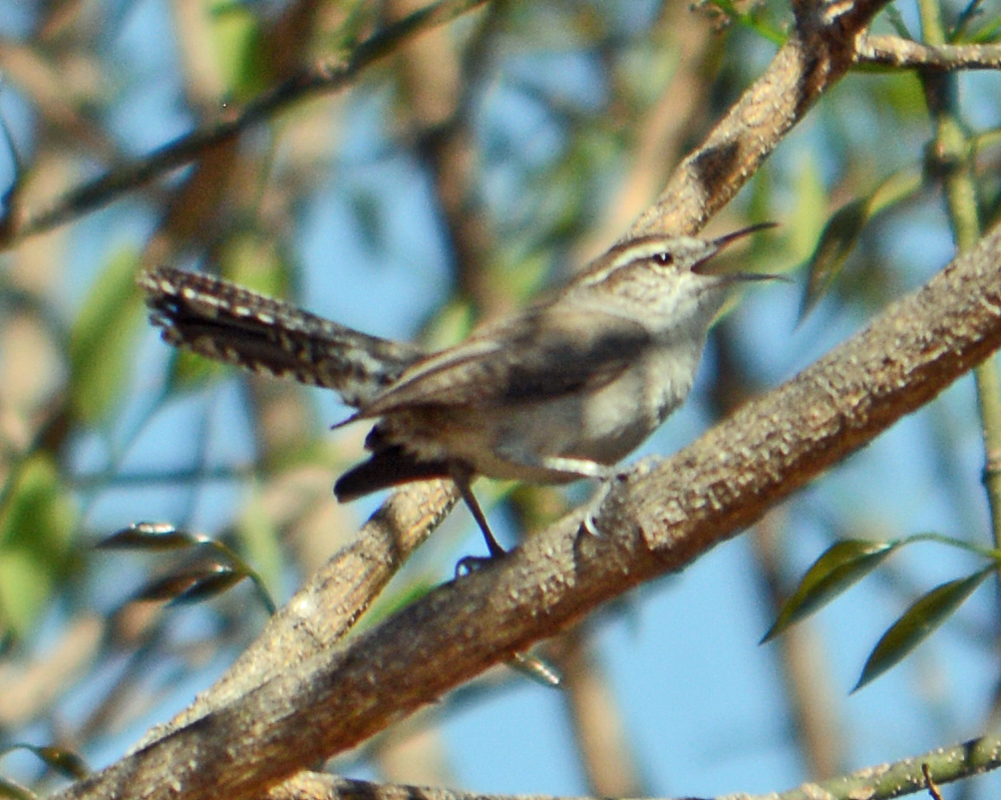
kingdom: Animalia
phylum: Chordata
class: Aves
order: Passeriformes
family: Troglodytidae
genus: Thryomanes
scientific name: Thryomanes bewickii
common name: Bewick's wren
